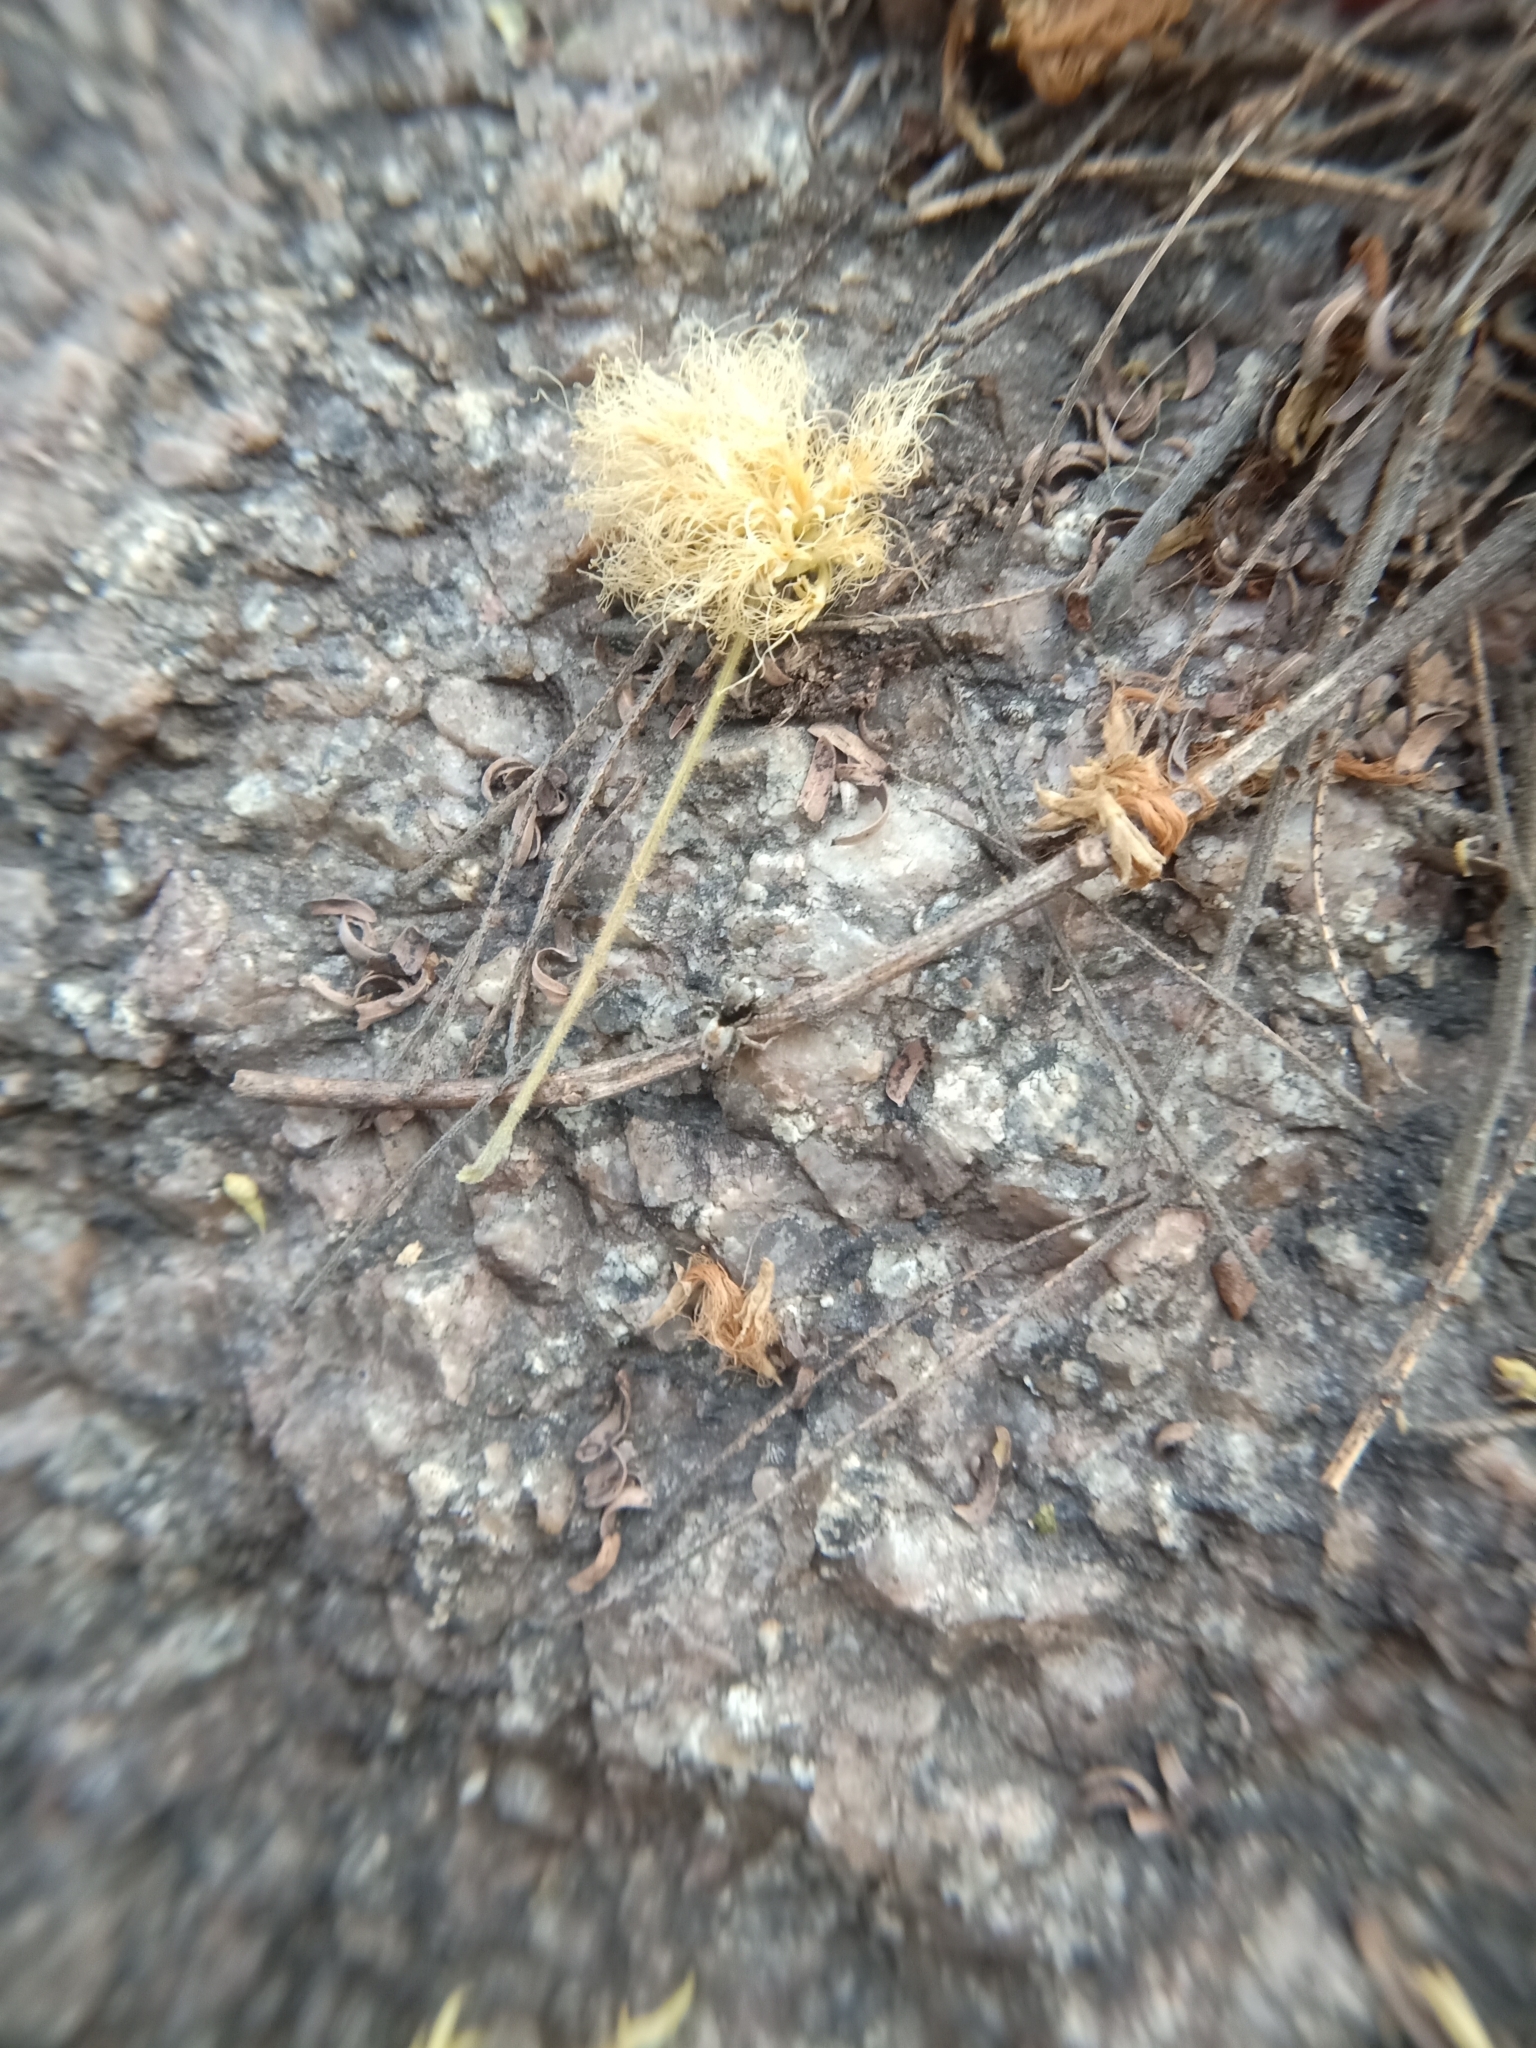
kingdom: Animalia
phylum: Arthropoda
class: Arachnida
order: Araneae
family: Salticidae
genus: Stenaelurillus
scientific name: Stenaelurillus metallicus
